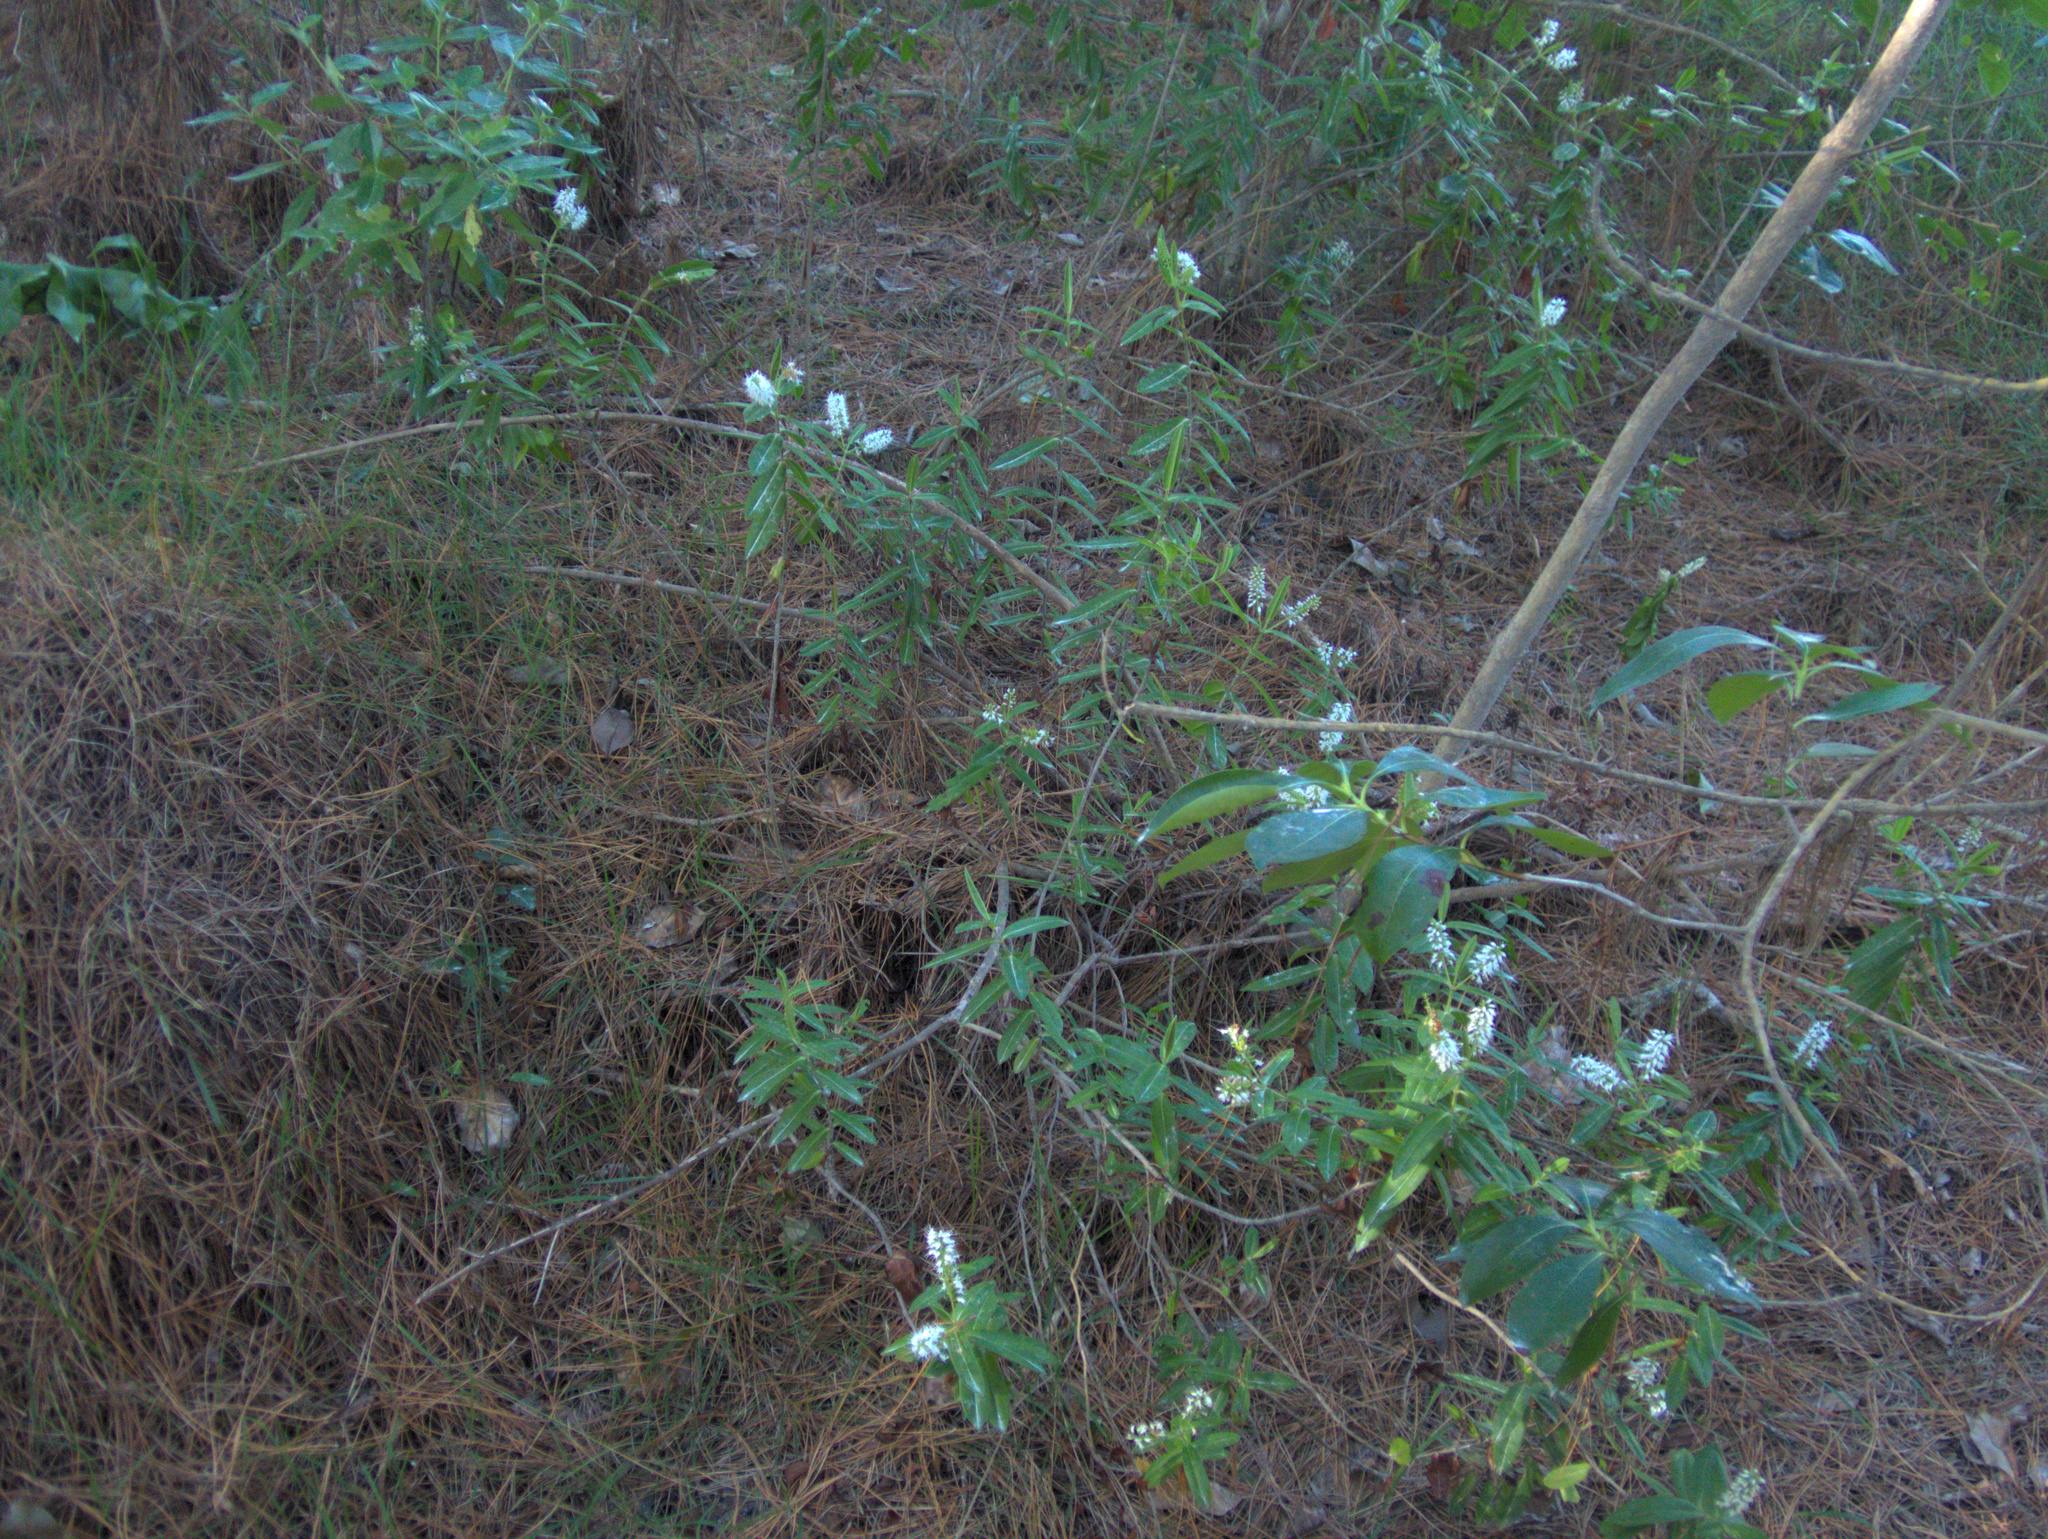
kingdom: Plantae
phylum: Tracheophyta
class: Magnoliopsida
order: Lamiales
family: Plantaginaceae
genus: Veronica
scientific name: Veronica pubescens
